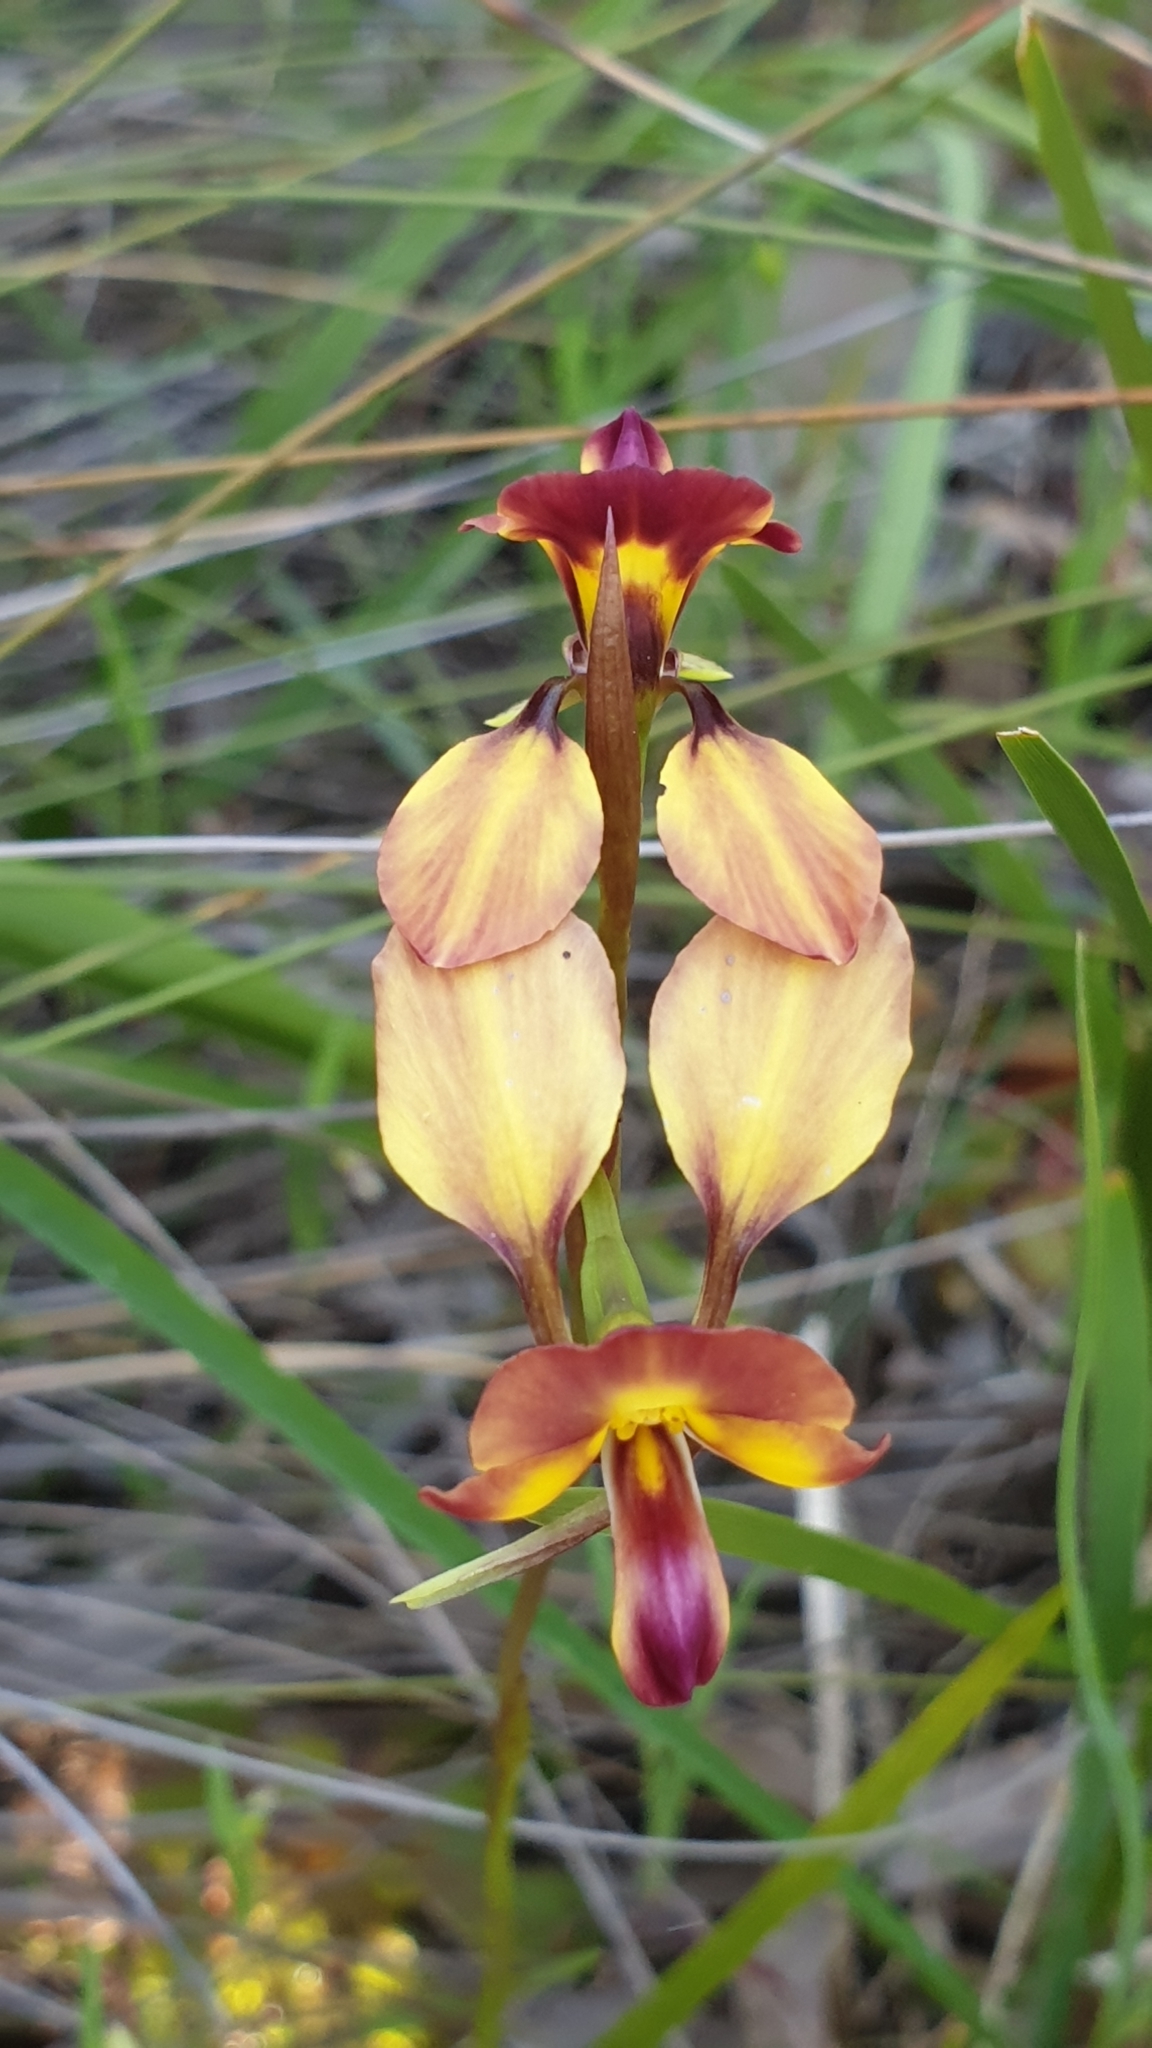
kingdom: Plantae
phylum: Tracheophyta
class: Liliopsida
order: Asparagales
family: Orchidaceae
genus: Diuris
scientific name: Diuris orientis
